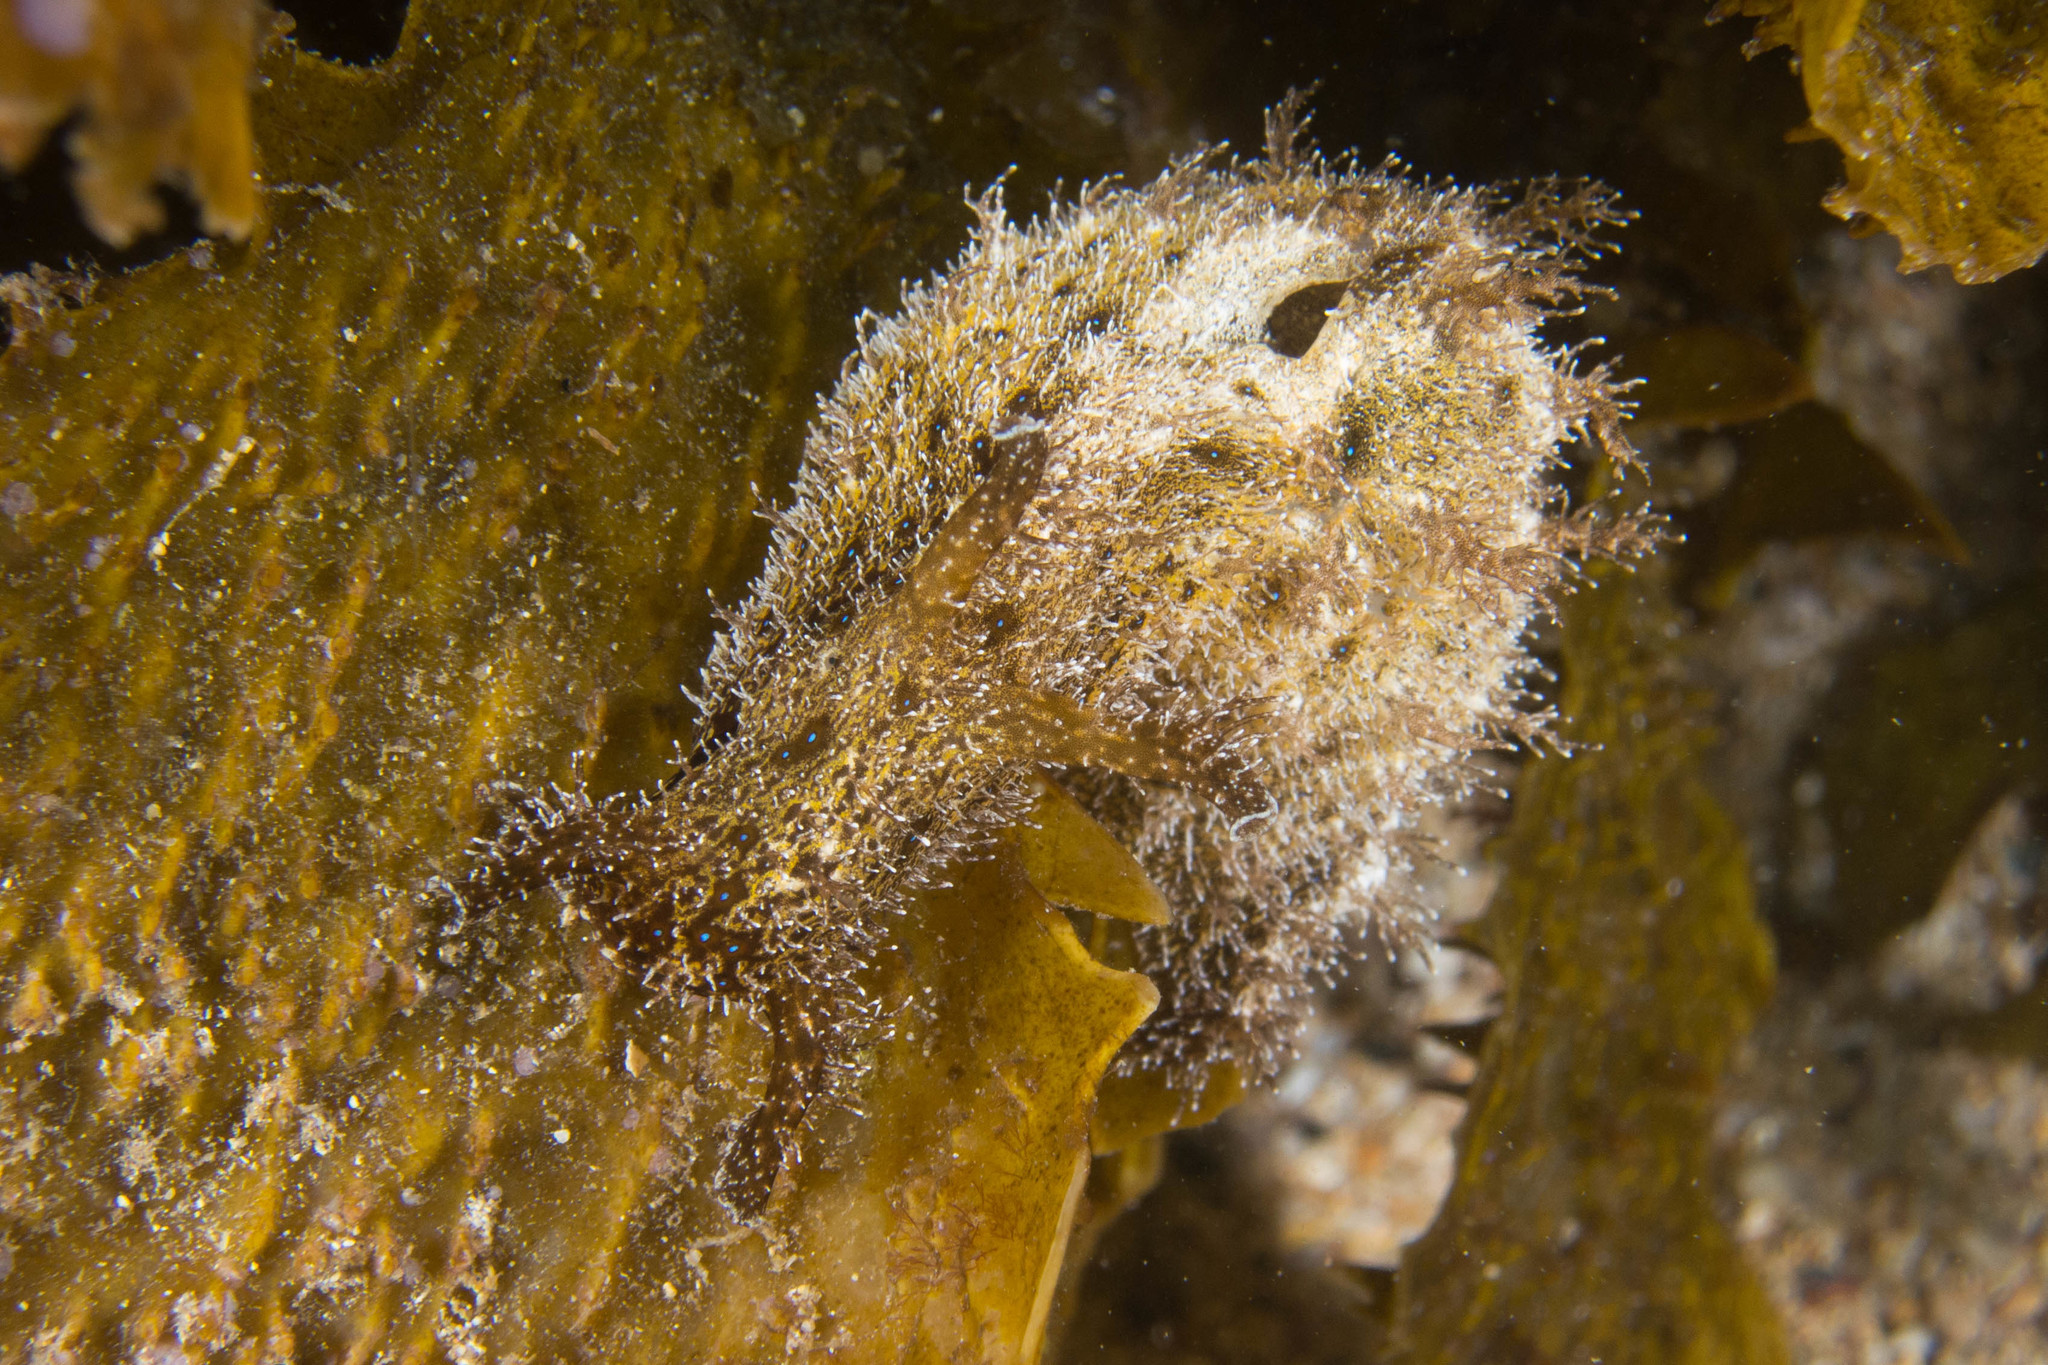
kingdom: Animalia
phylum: Mollusca
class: Gastropoda
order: Aplysiida
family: Aplysiidae
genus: Bursatella
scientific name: Bursatella hirsuta
